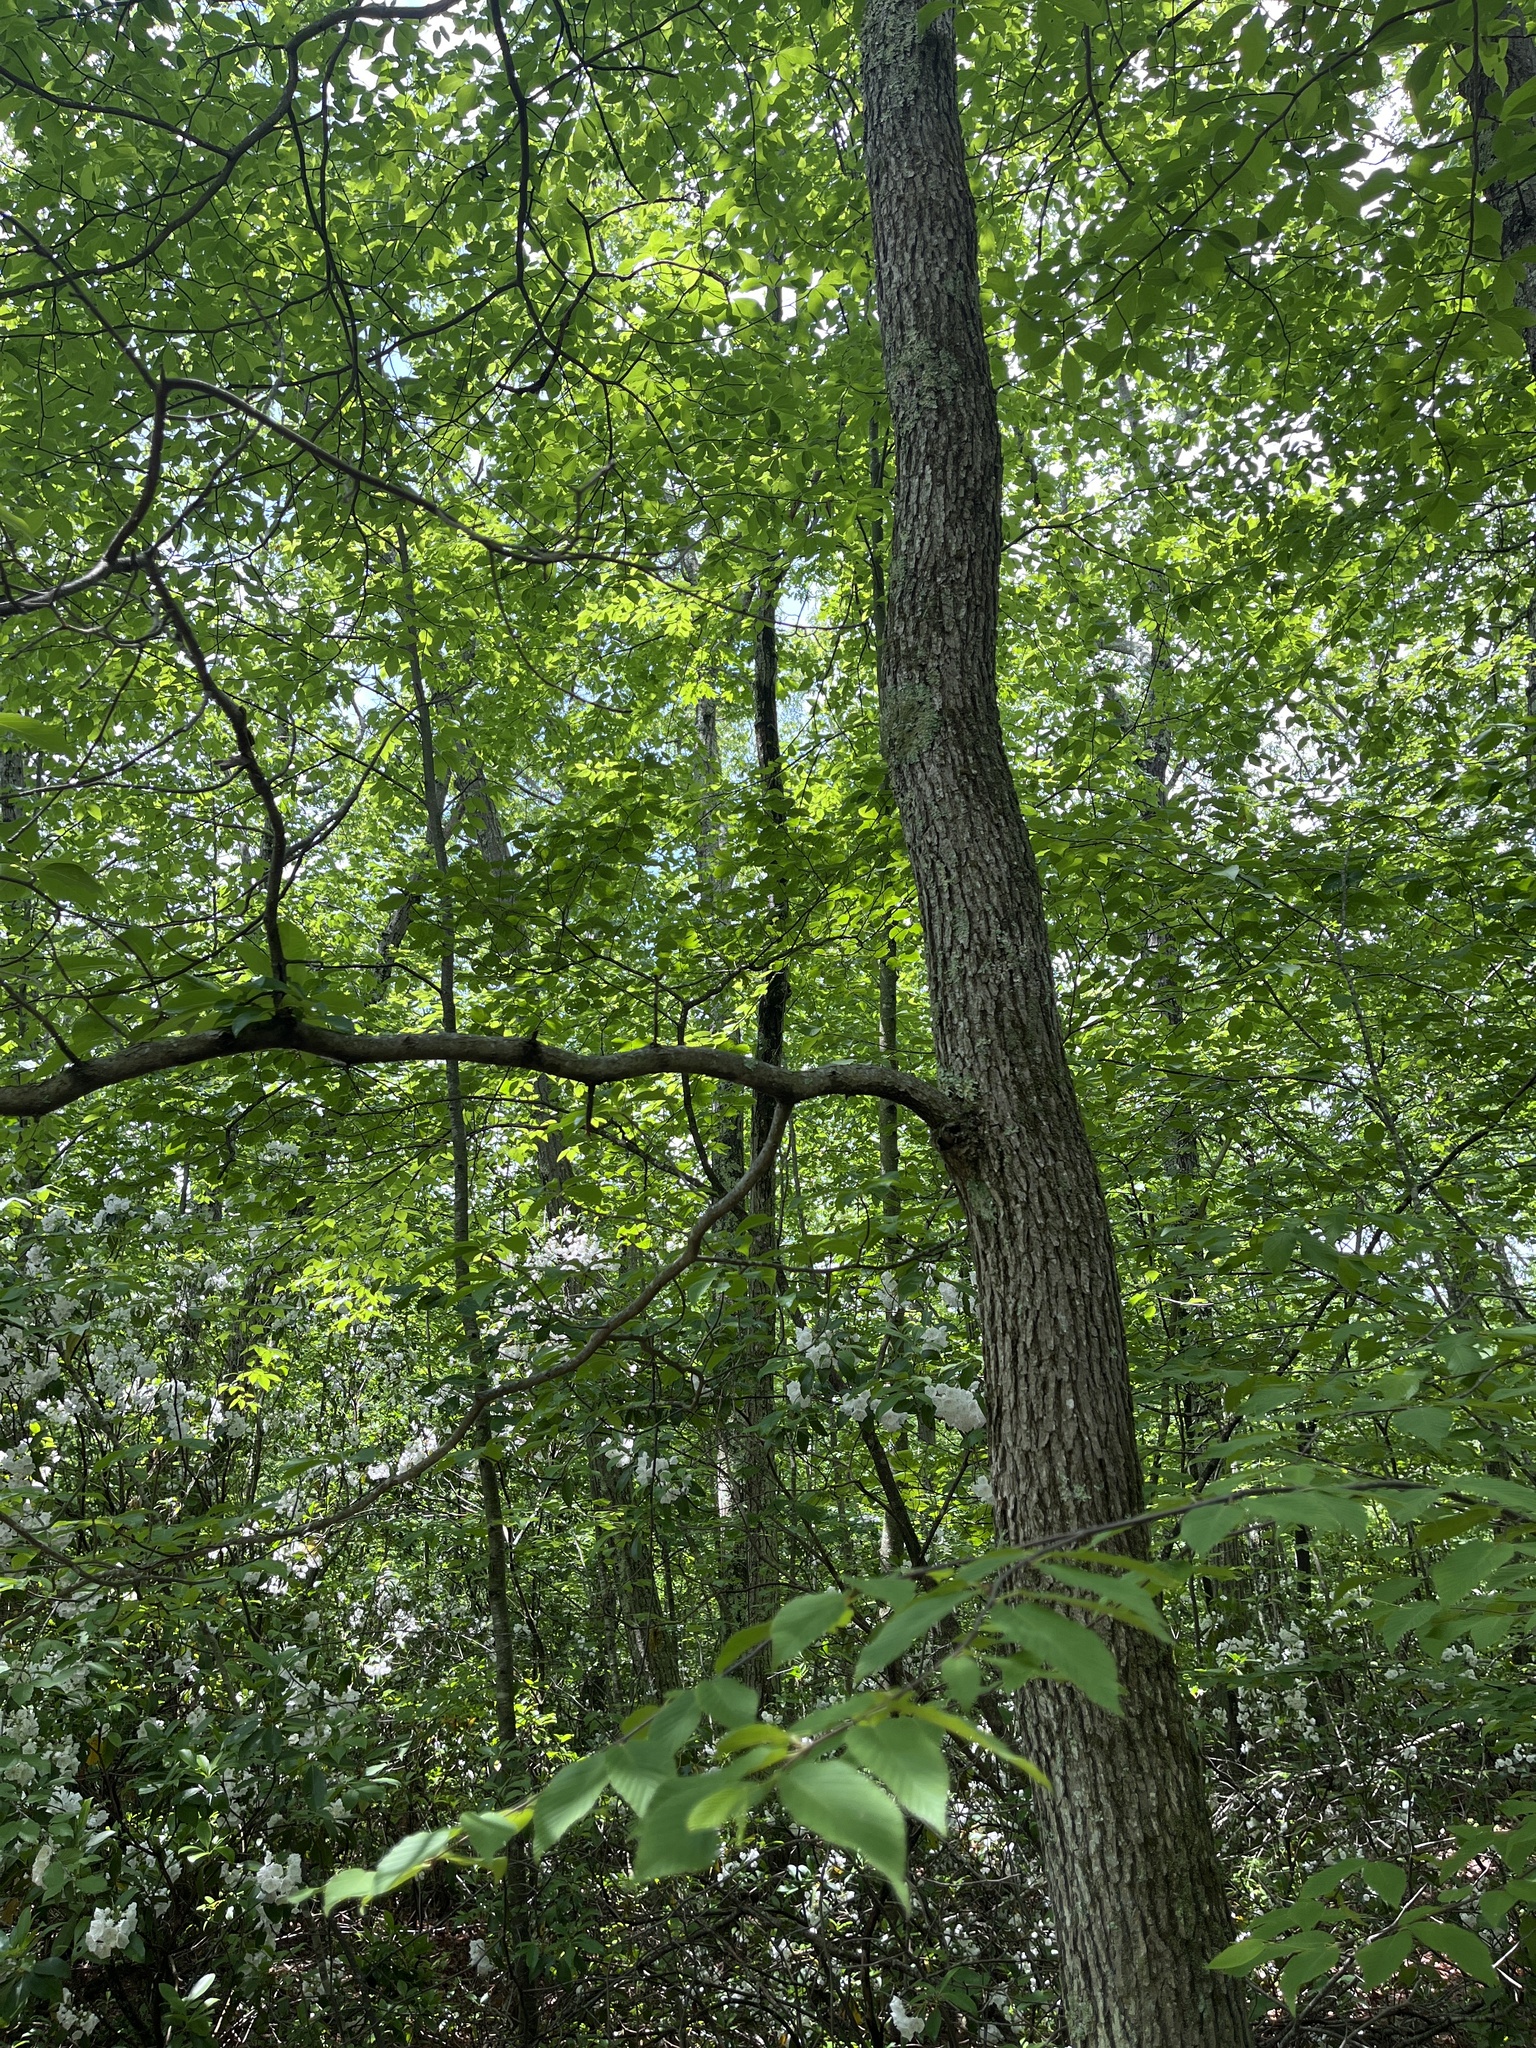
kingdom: Plantae
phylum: Tracheophyta
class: Magnoliopsida
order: Cornales
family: Nyssaceae
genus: Nyssa
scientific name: Nyssa sylvatica
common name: Black tupelo
